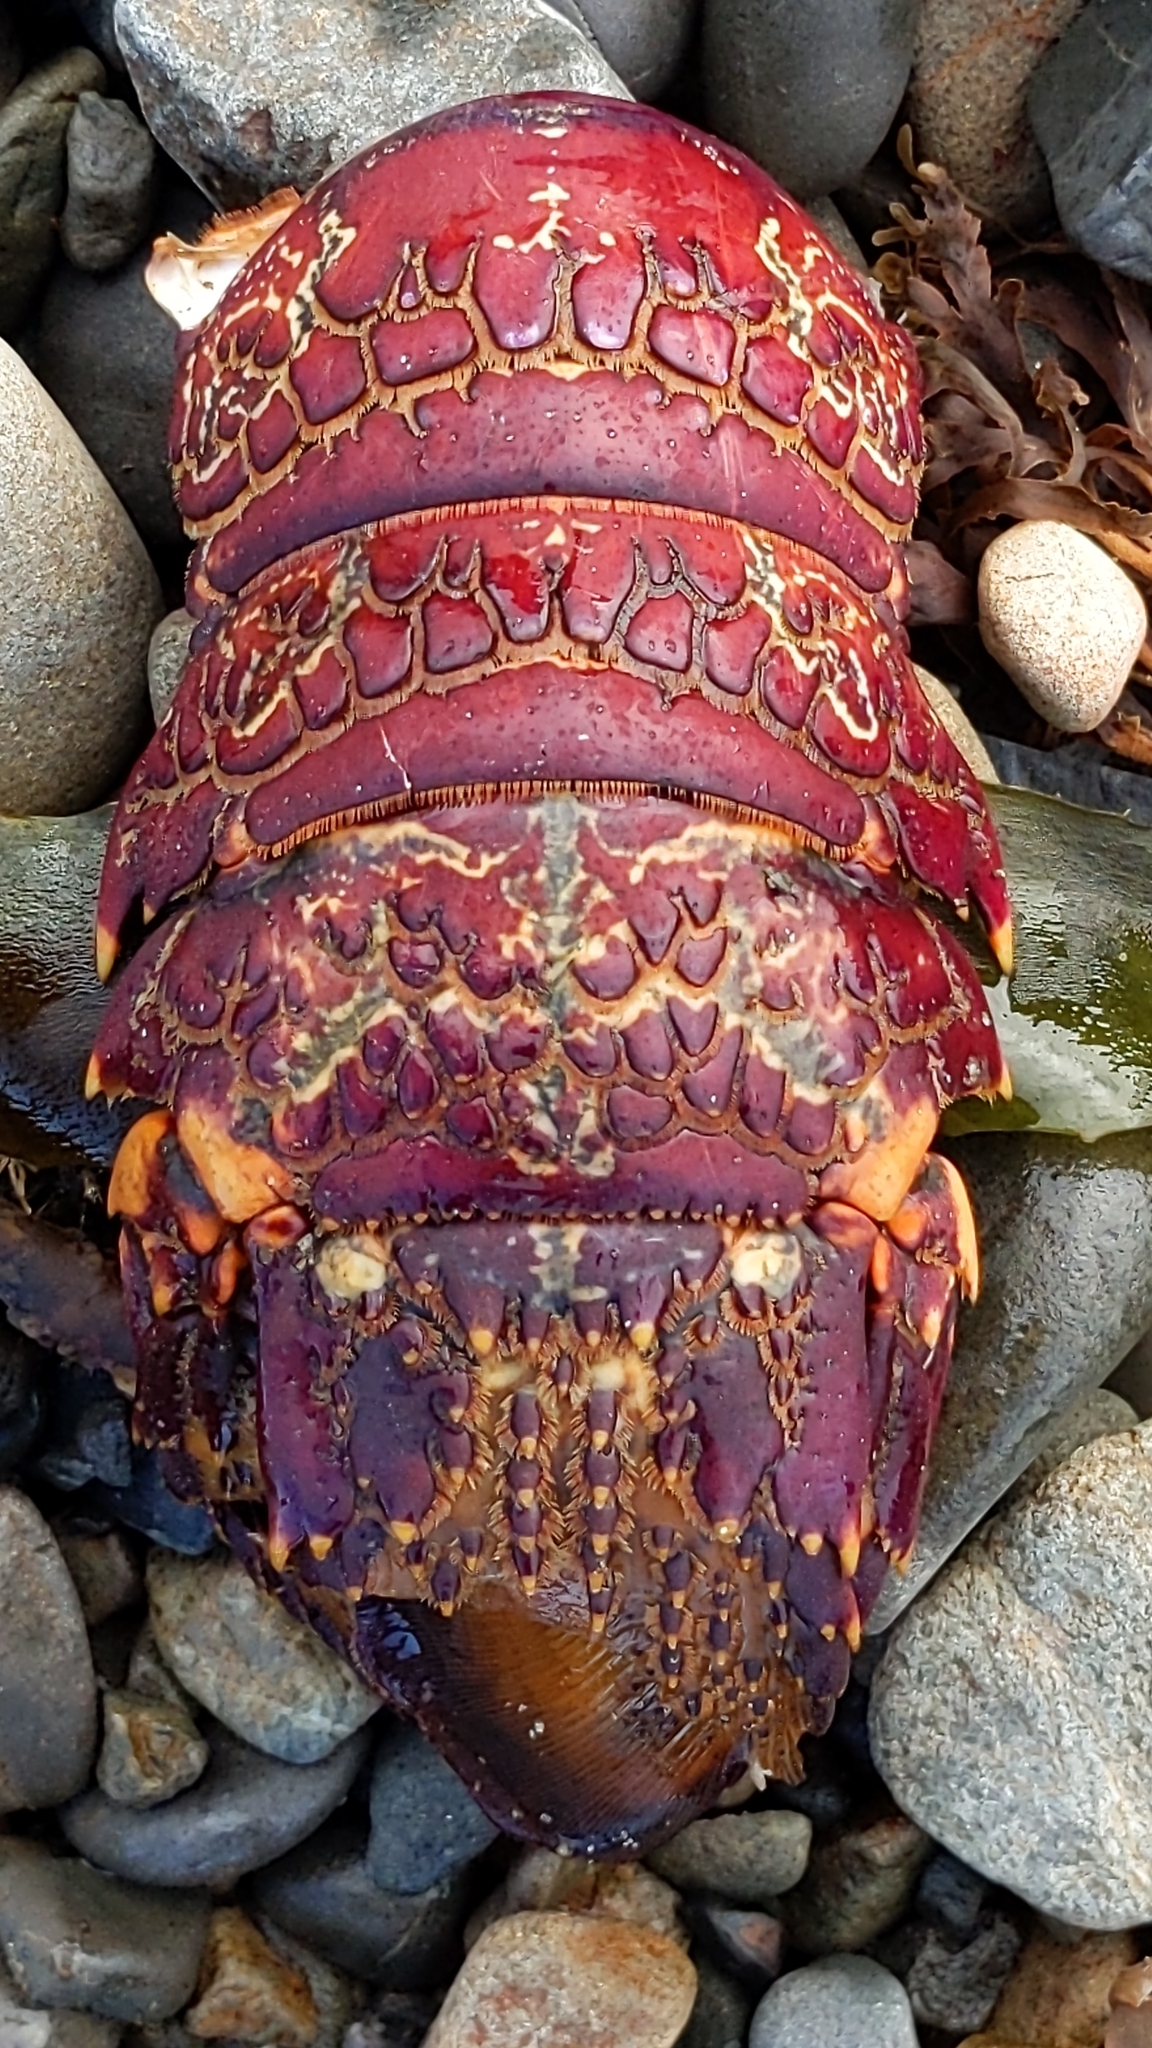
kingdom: Animalia
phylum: Arthropoda
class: Malacostraca
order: Decapoda
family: Palinuridae
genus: Jasus
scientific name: Jasus edwardsii
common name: Red rock lobster
